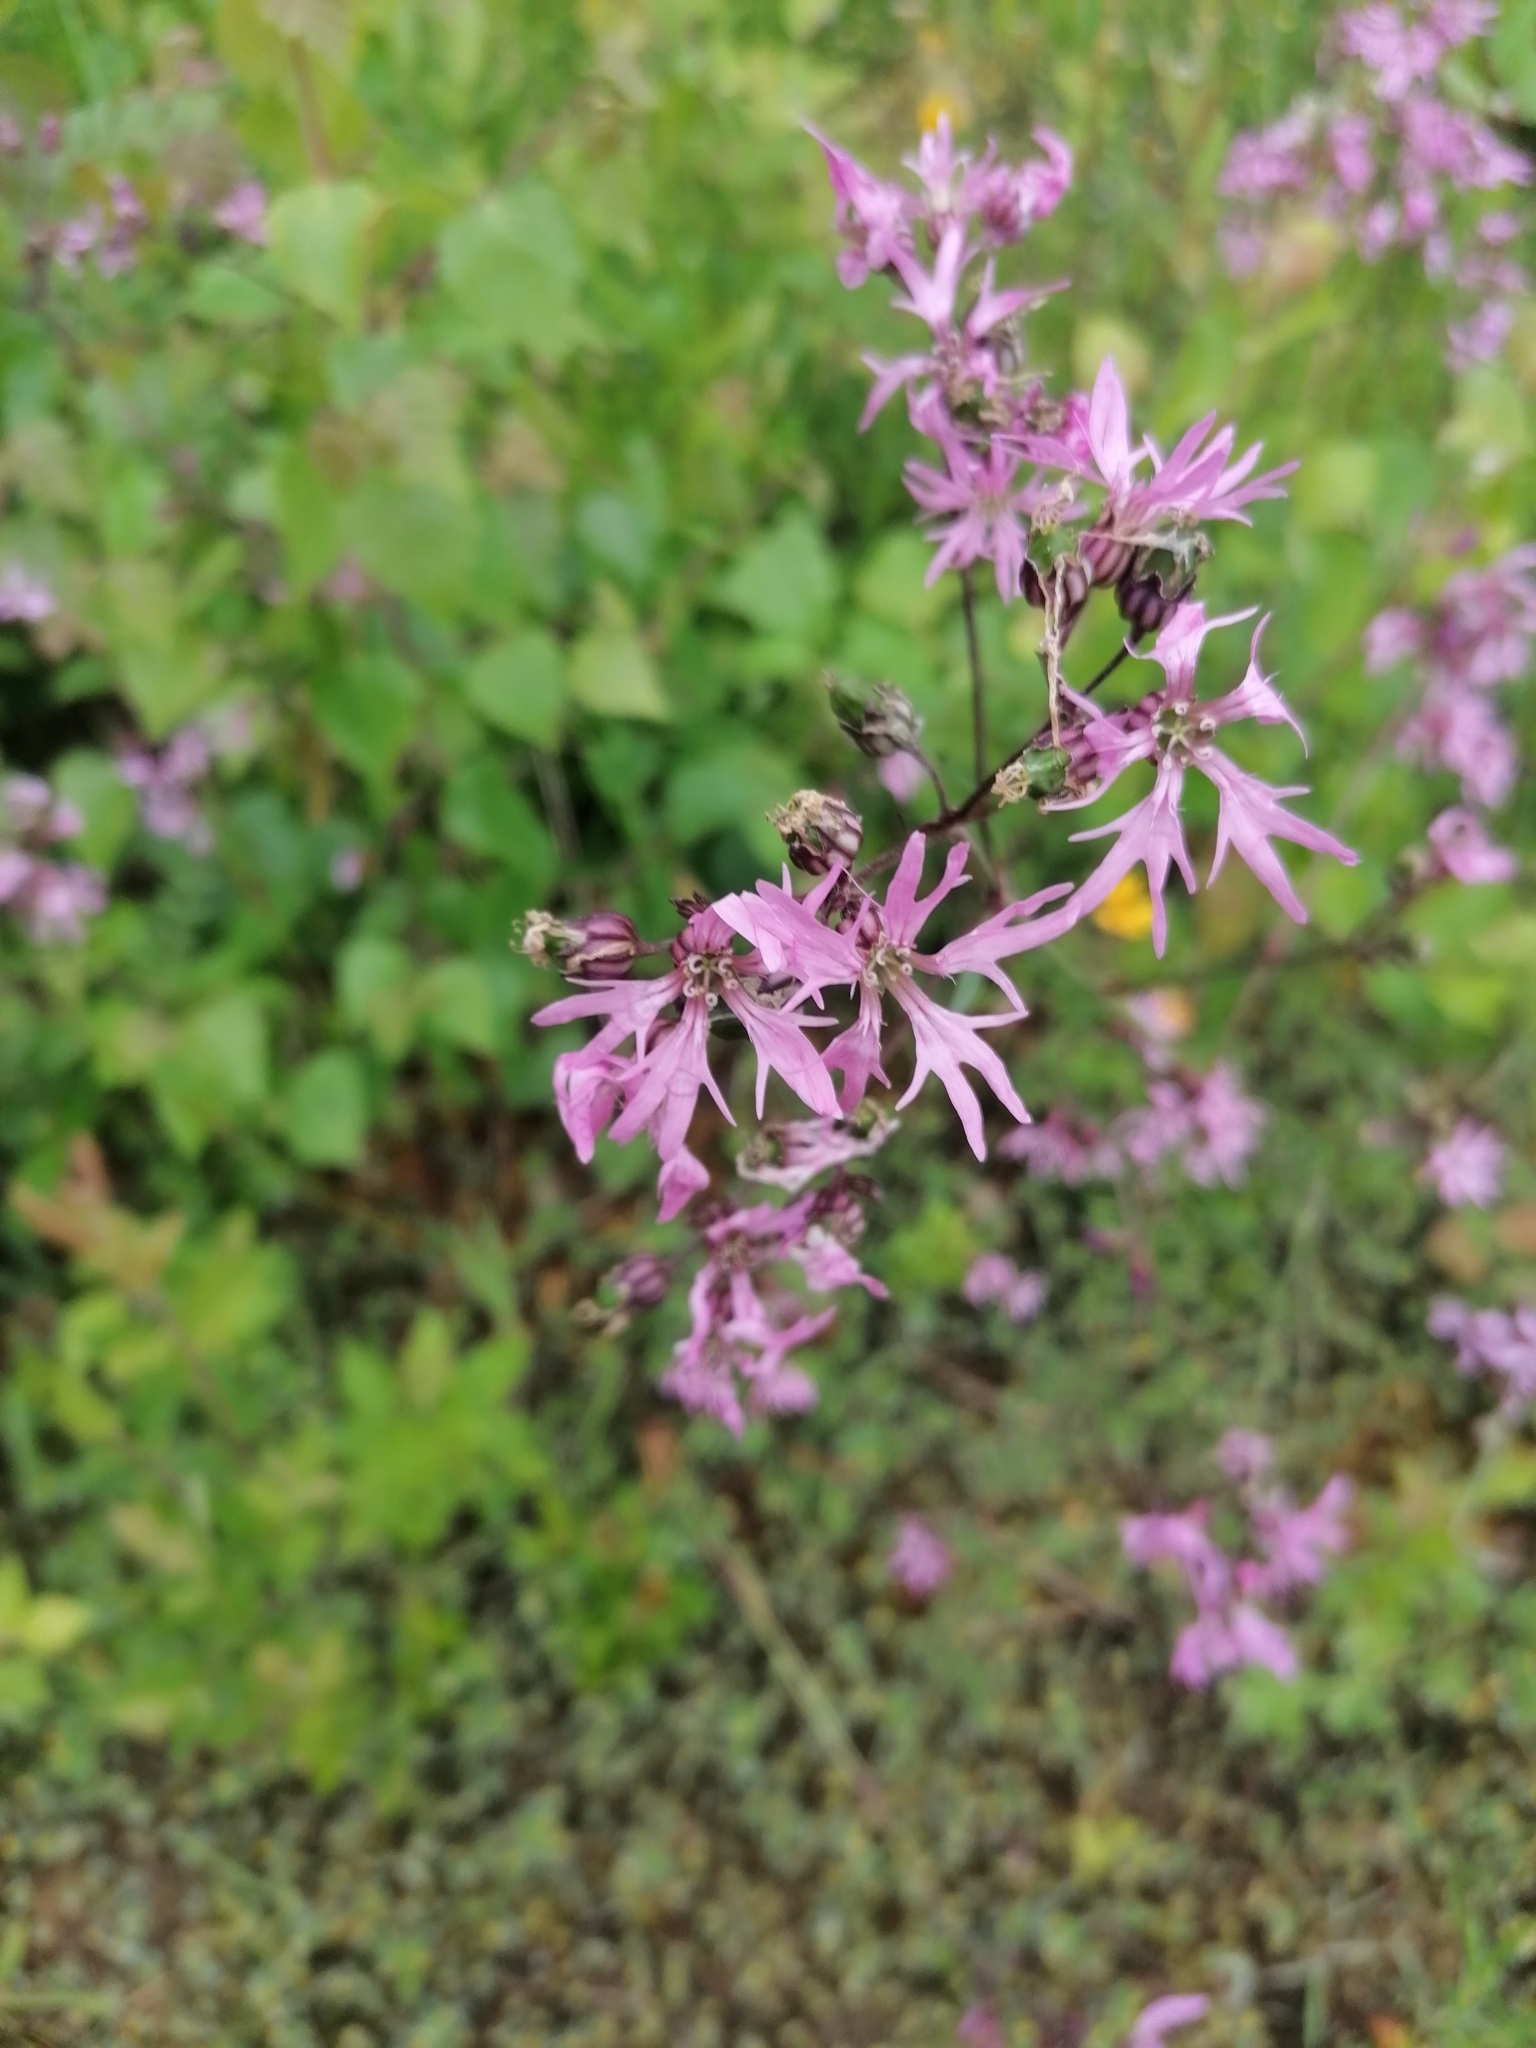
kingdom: Plantae
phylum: Tracheophyta
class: Magnoliopsida
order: Caryophyllales
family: Caryophyllaceae
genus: Silene
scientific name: Silene flos-cuculi
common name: Ragged-robin
